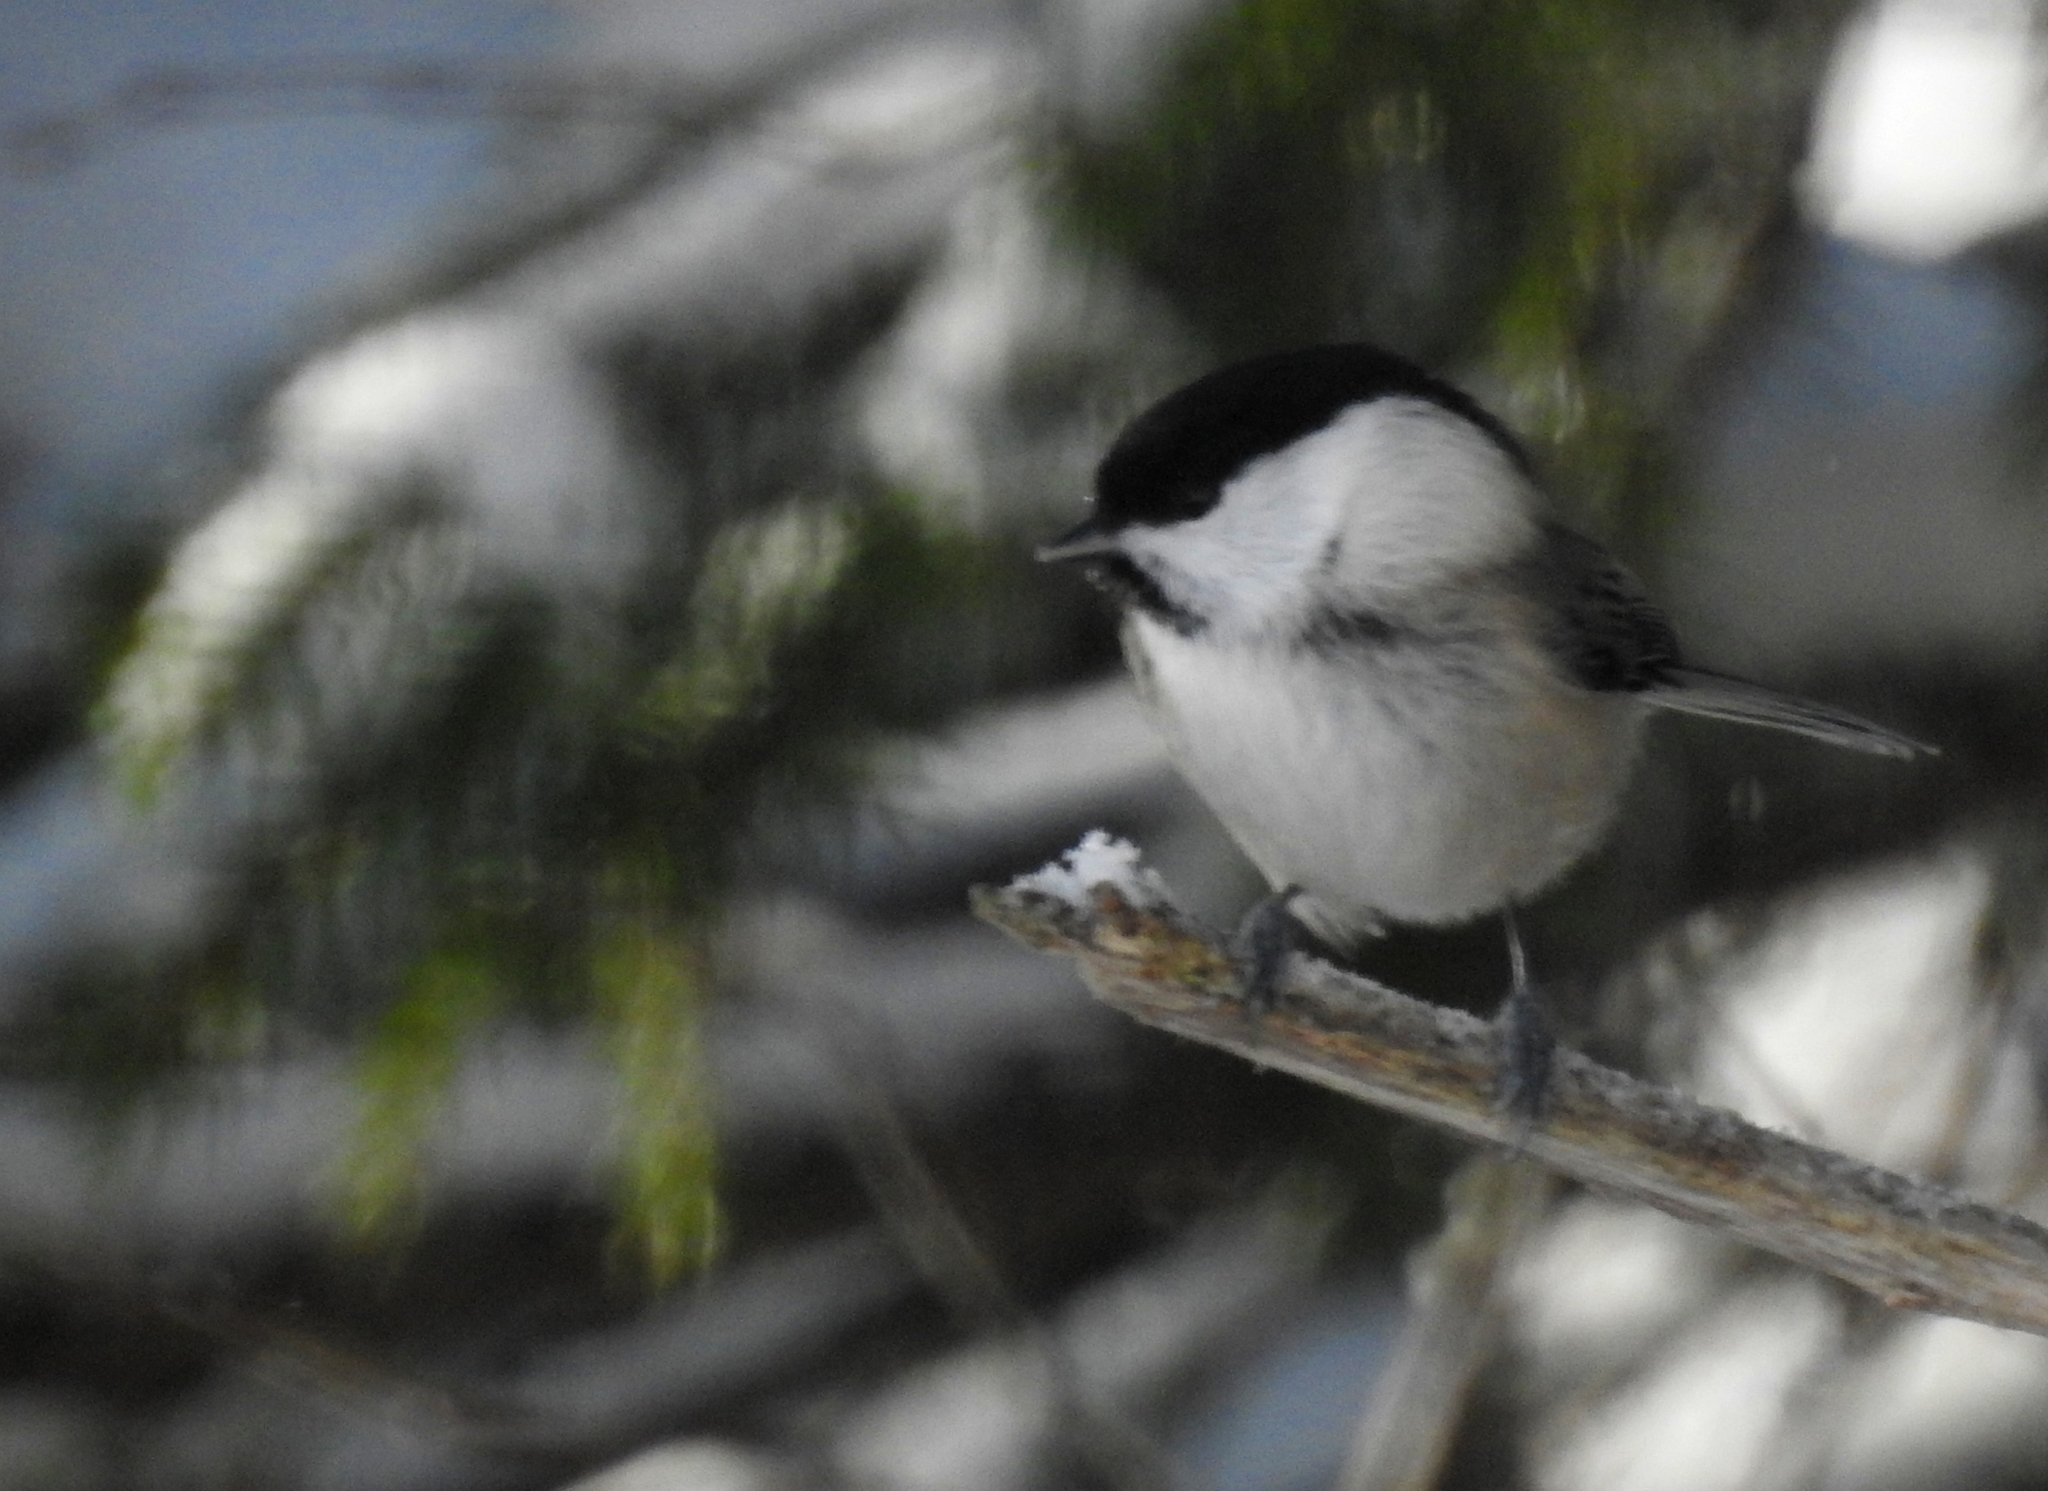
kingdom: Animalia
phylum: Chordata
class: Aves
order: Passeriformes
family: Paridae
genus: Poecile
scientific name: Poecile montanus
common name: Willow tit
